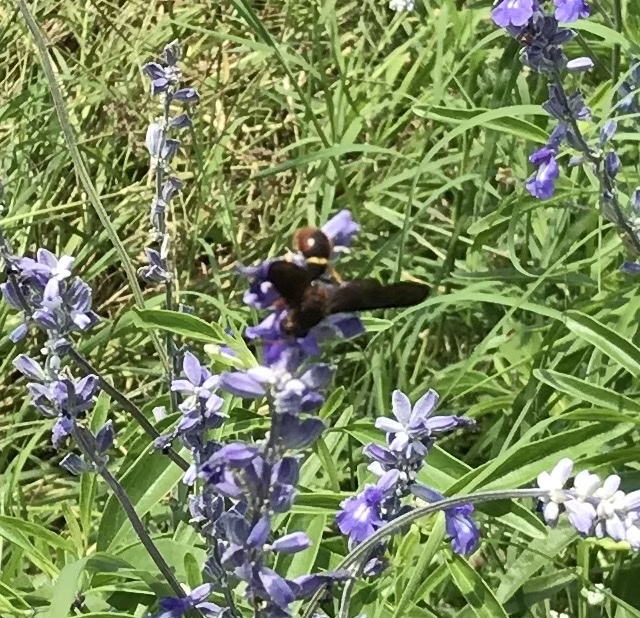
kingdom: Animalia
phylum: Arthropoda
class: Insecta
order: Hymenoptera
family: Eumenidae
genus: Parazumia
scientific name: Parazumia tolteca
